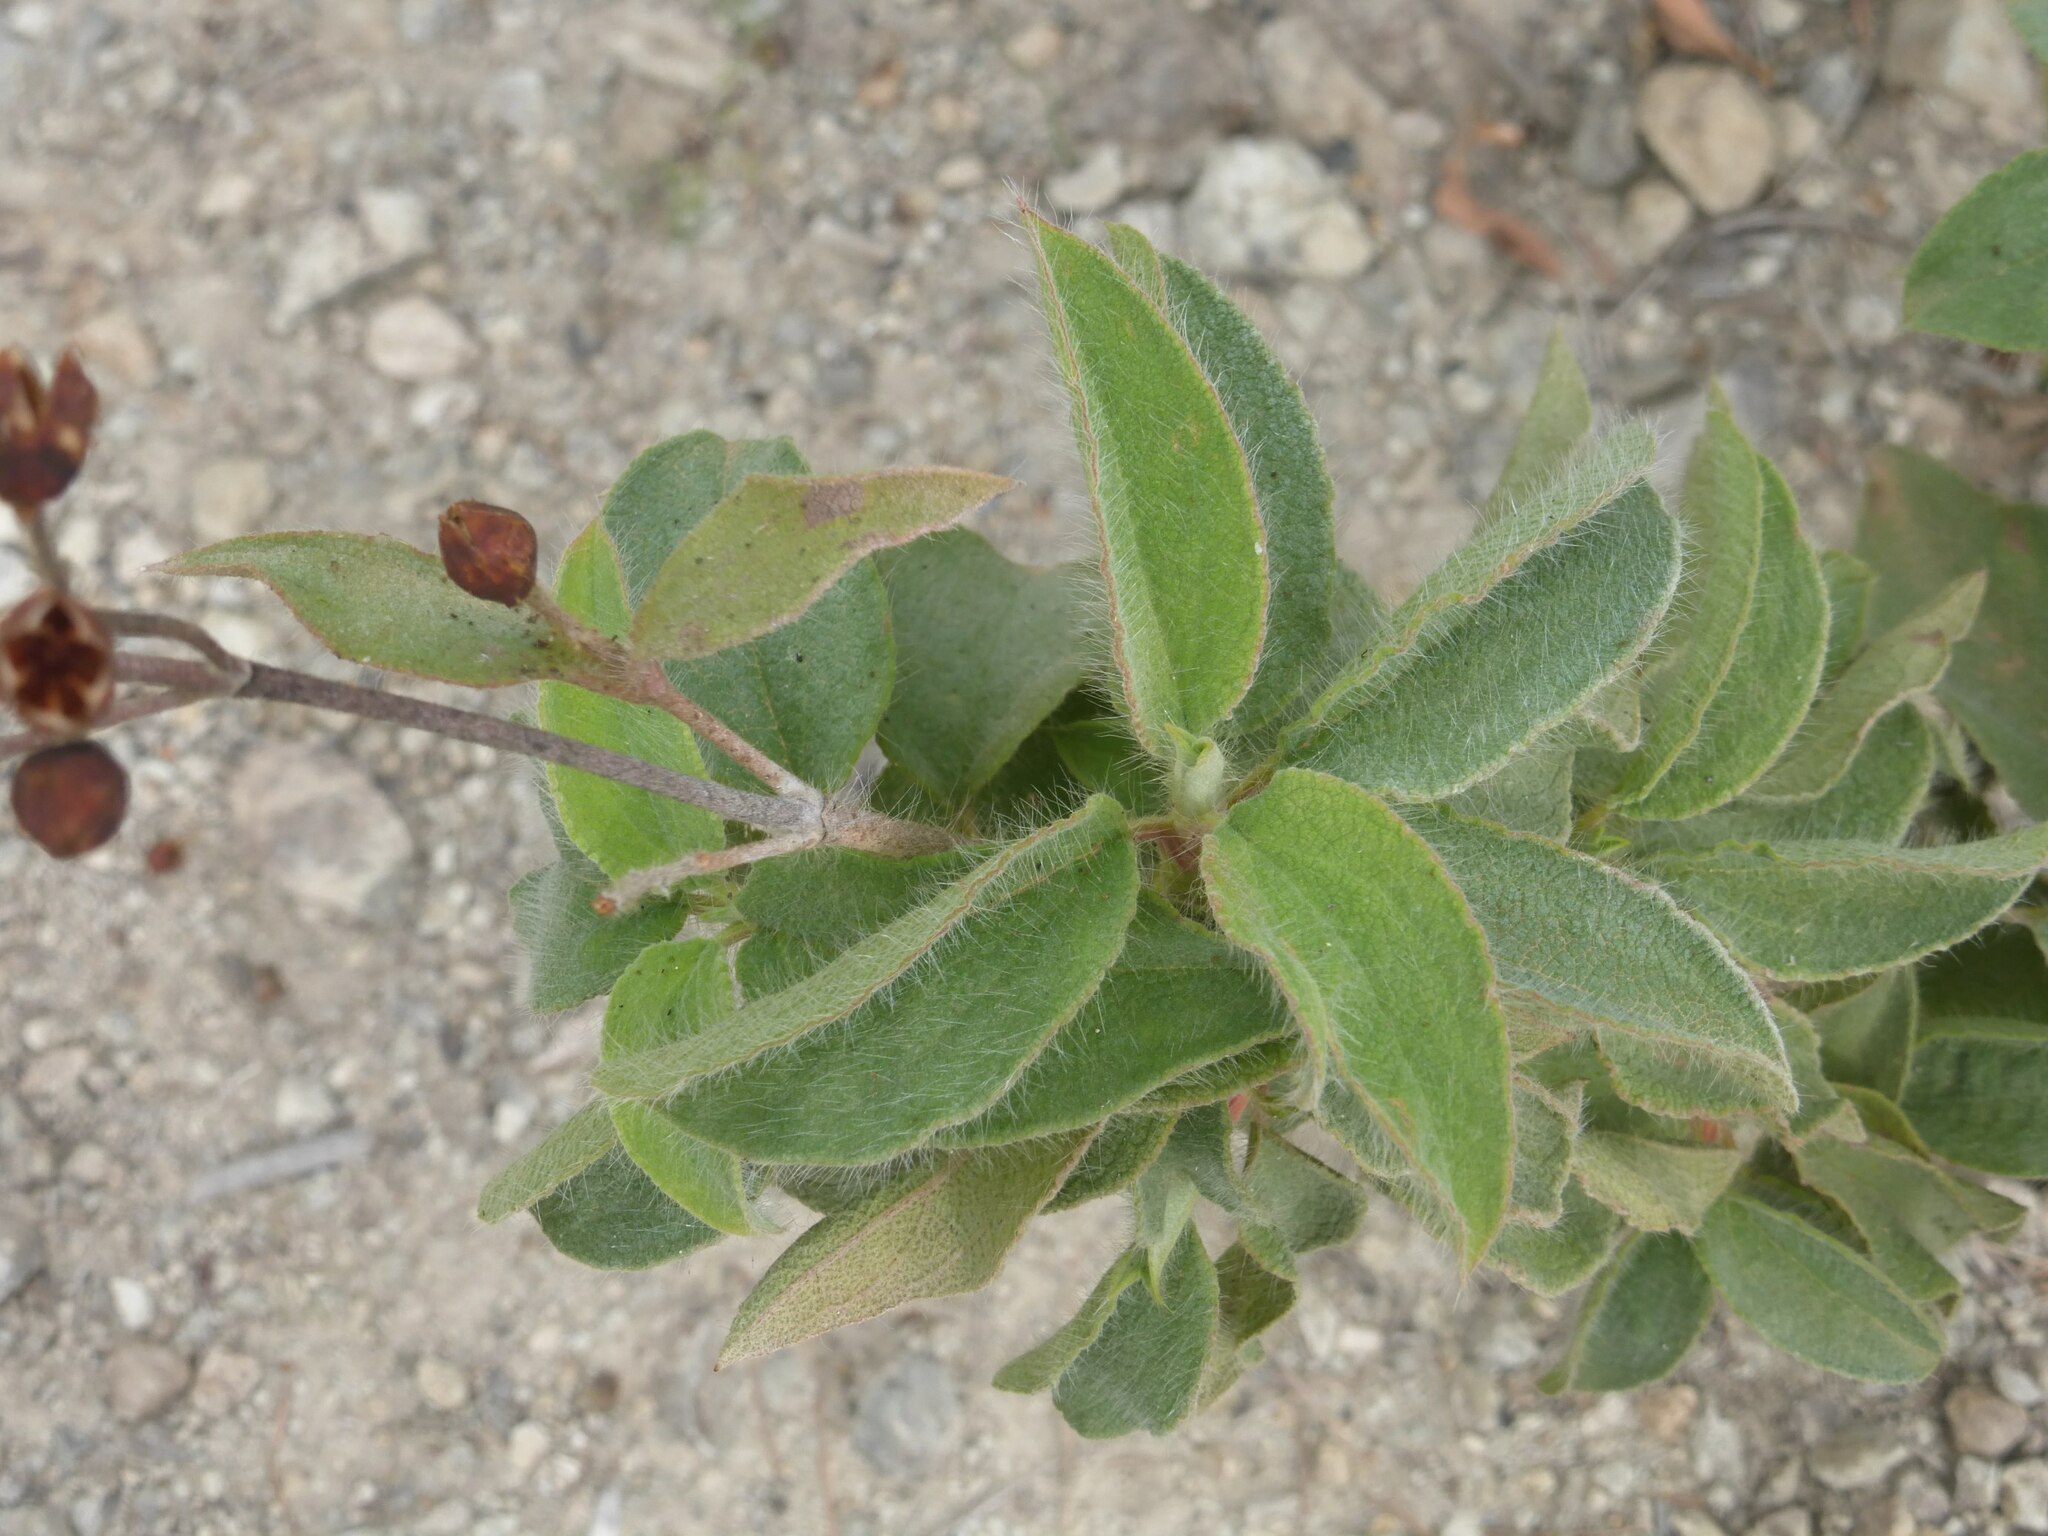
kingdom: Plantae
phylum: Tracheophyta
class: Magnoliopsida
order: Malvales
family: Cistaceae
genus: Cistus
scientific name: Cistus horrens
